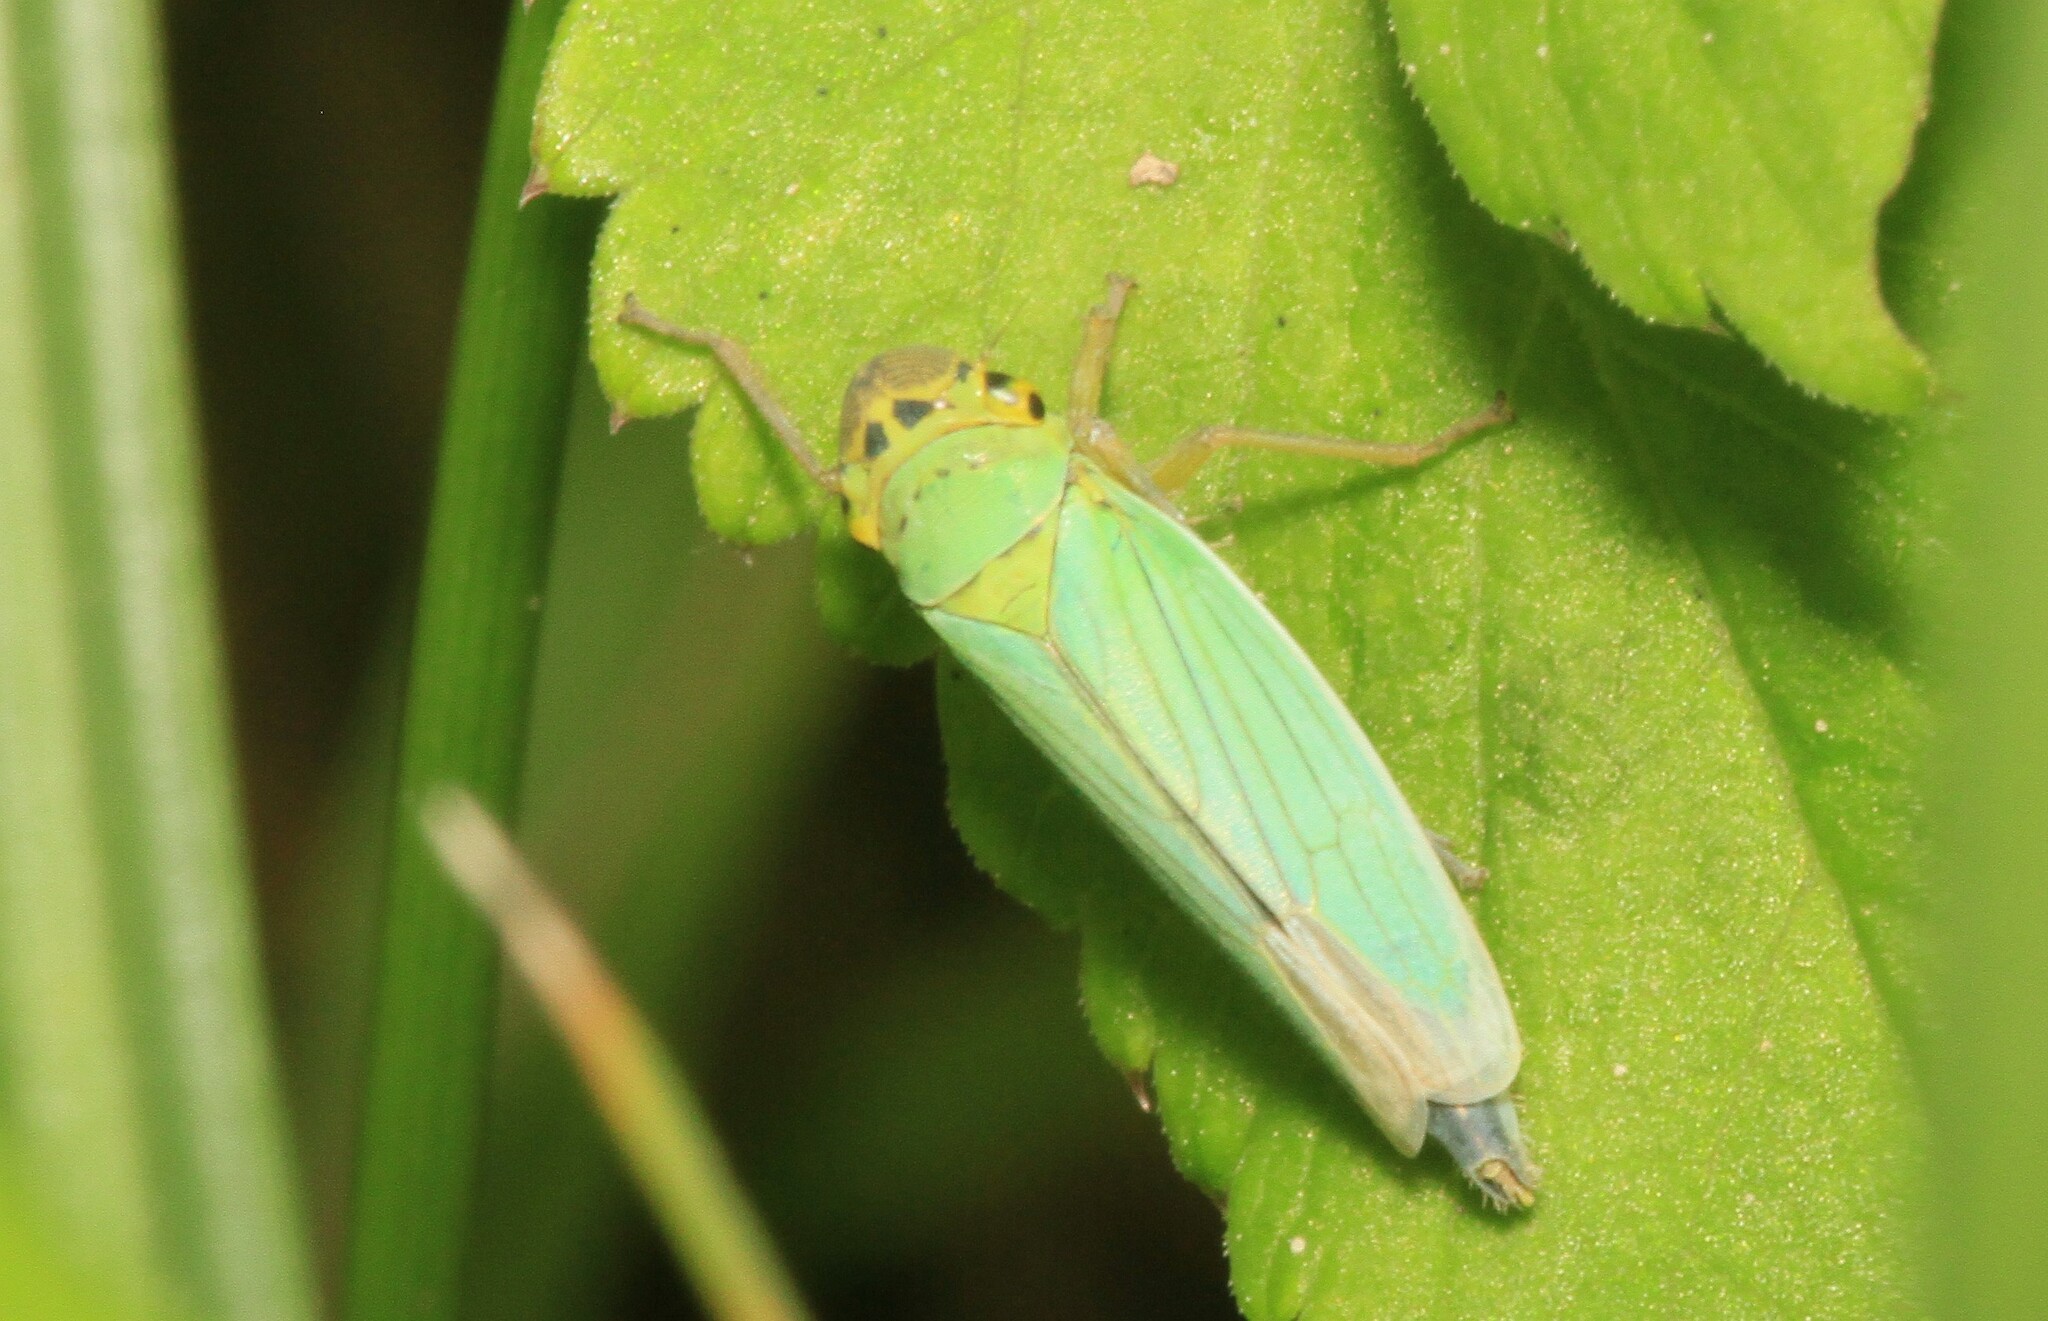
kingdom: Animalia
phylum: Arthropoda
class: Insecta
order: Hemiptera
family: Cicadellidae
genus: Cicadella
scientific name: Cicadella viridis
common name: Leafhopper
